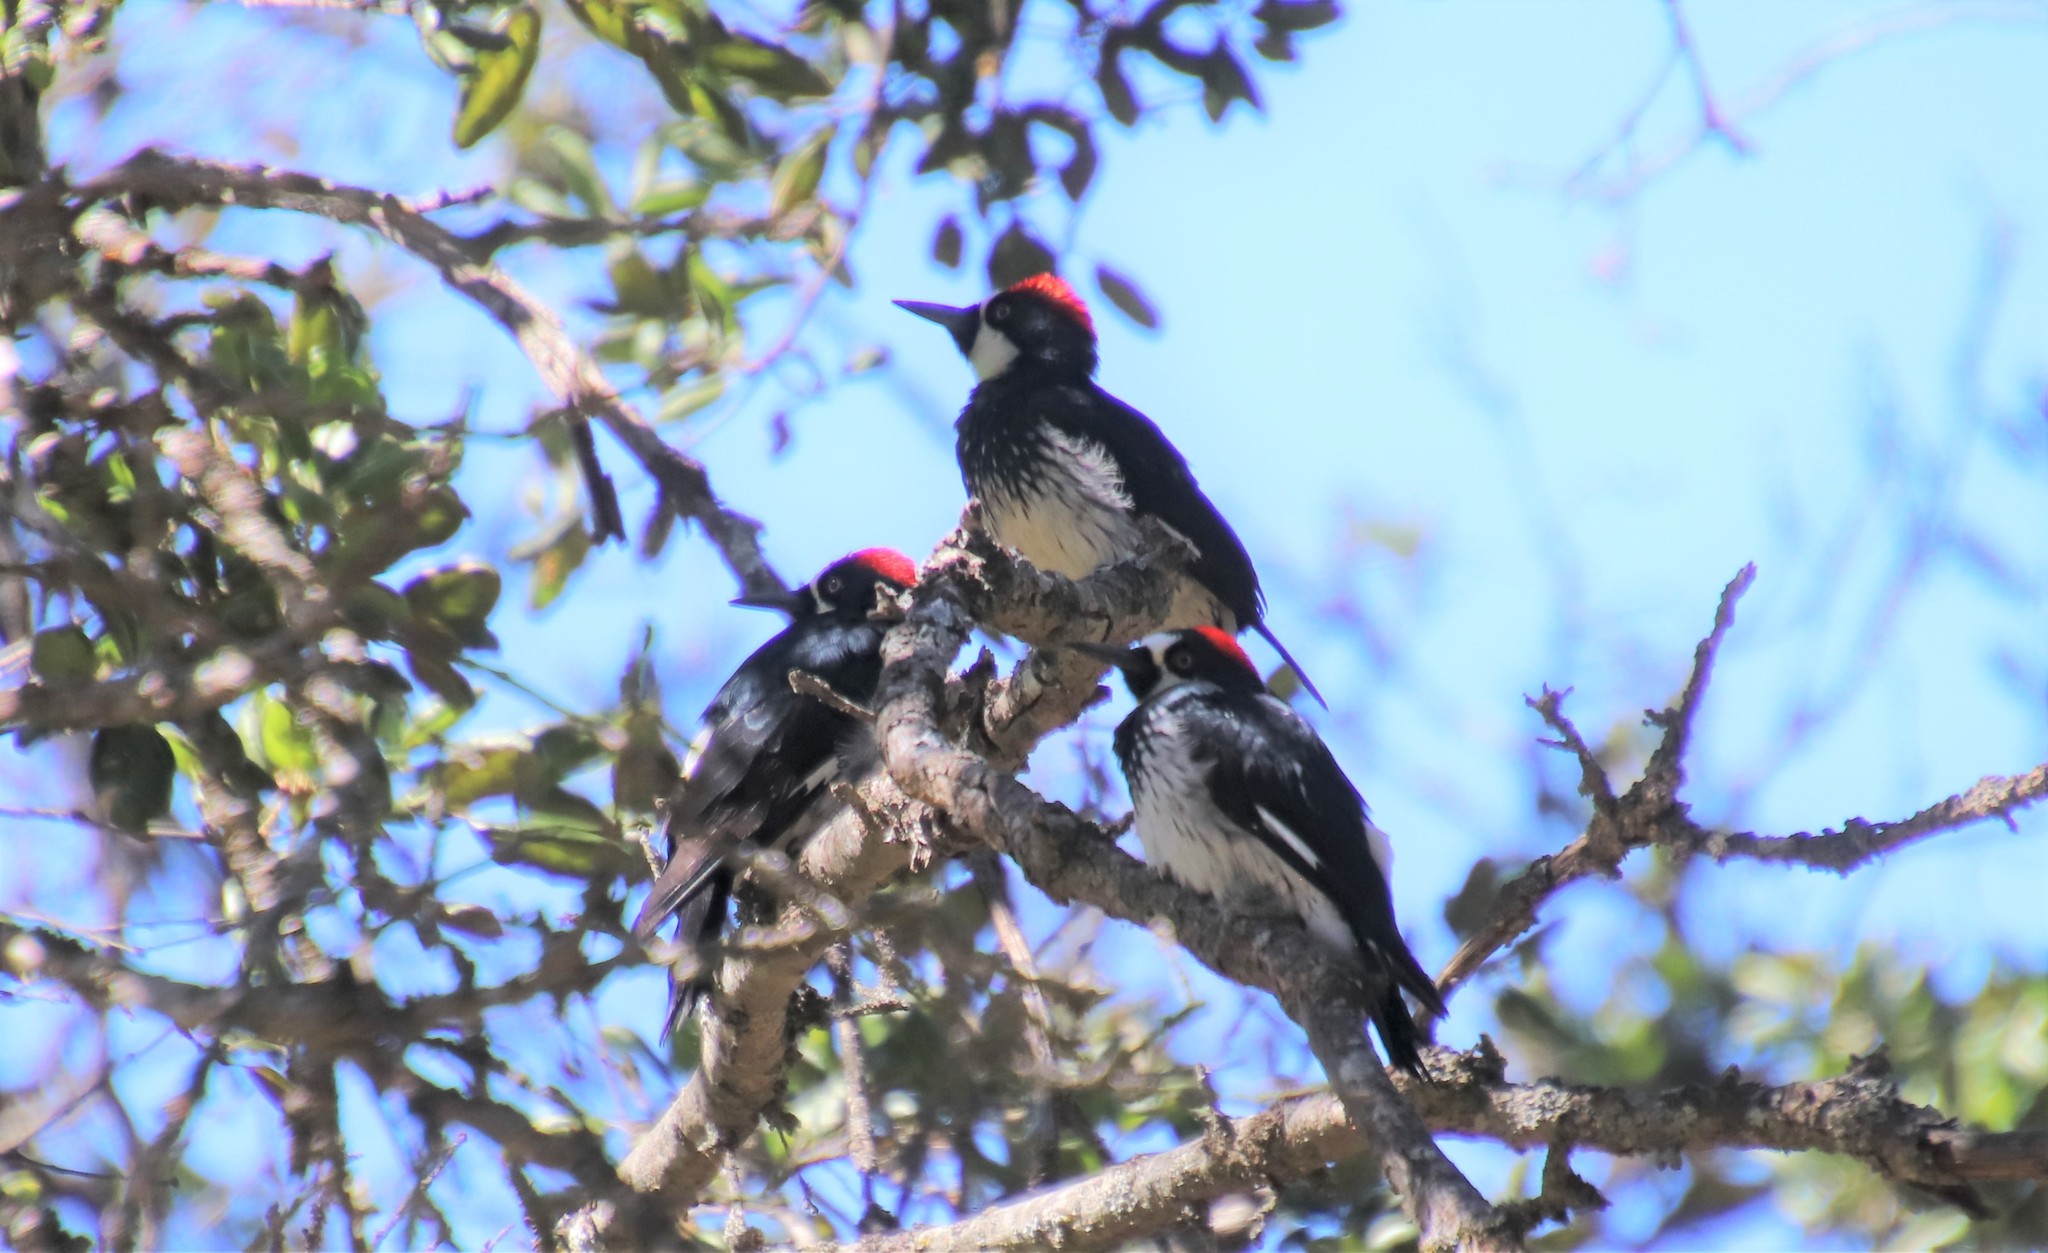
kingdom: Animalia
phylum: Chordata
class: Aves
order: Piciformes
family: Picidae
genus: Melanerpes
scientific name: Melanerpes formicivorus
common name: Acorn woodpecker
